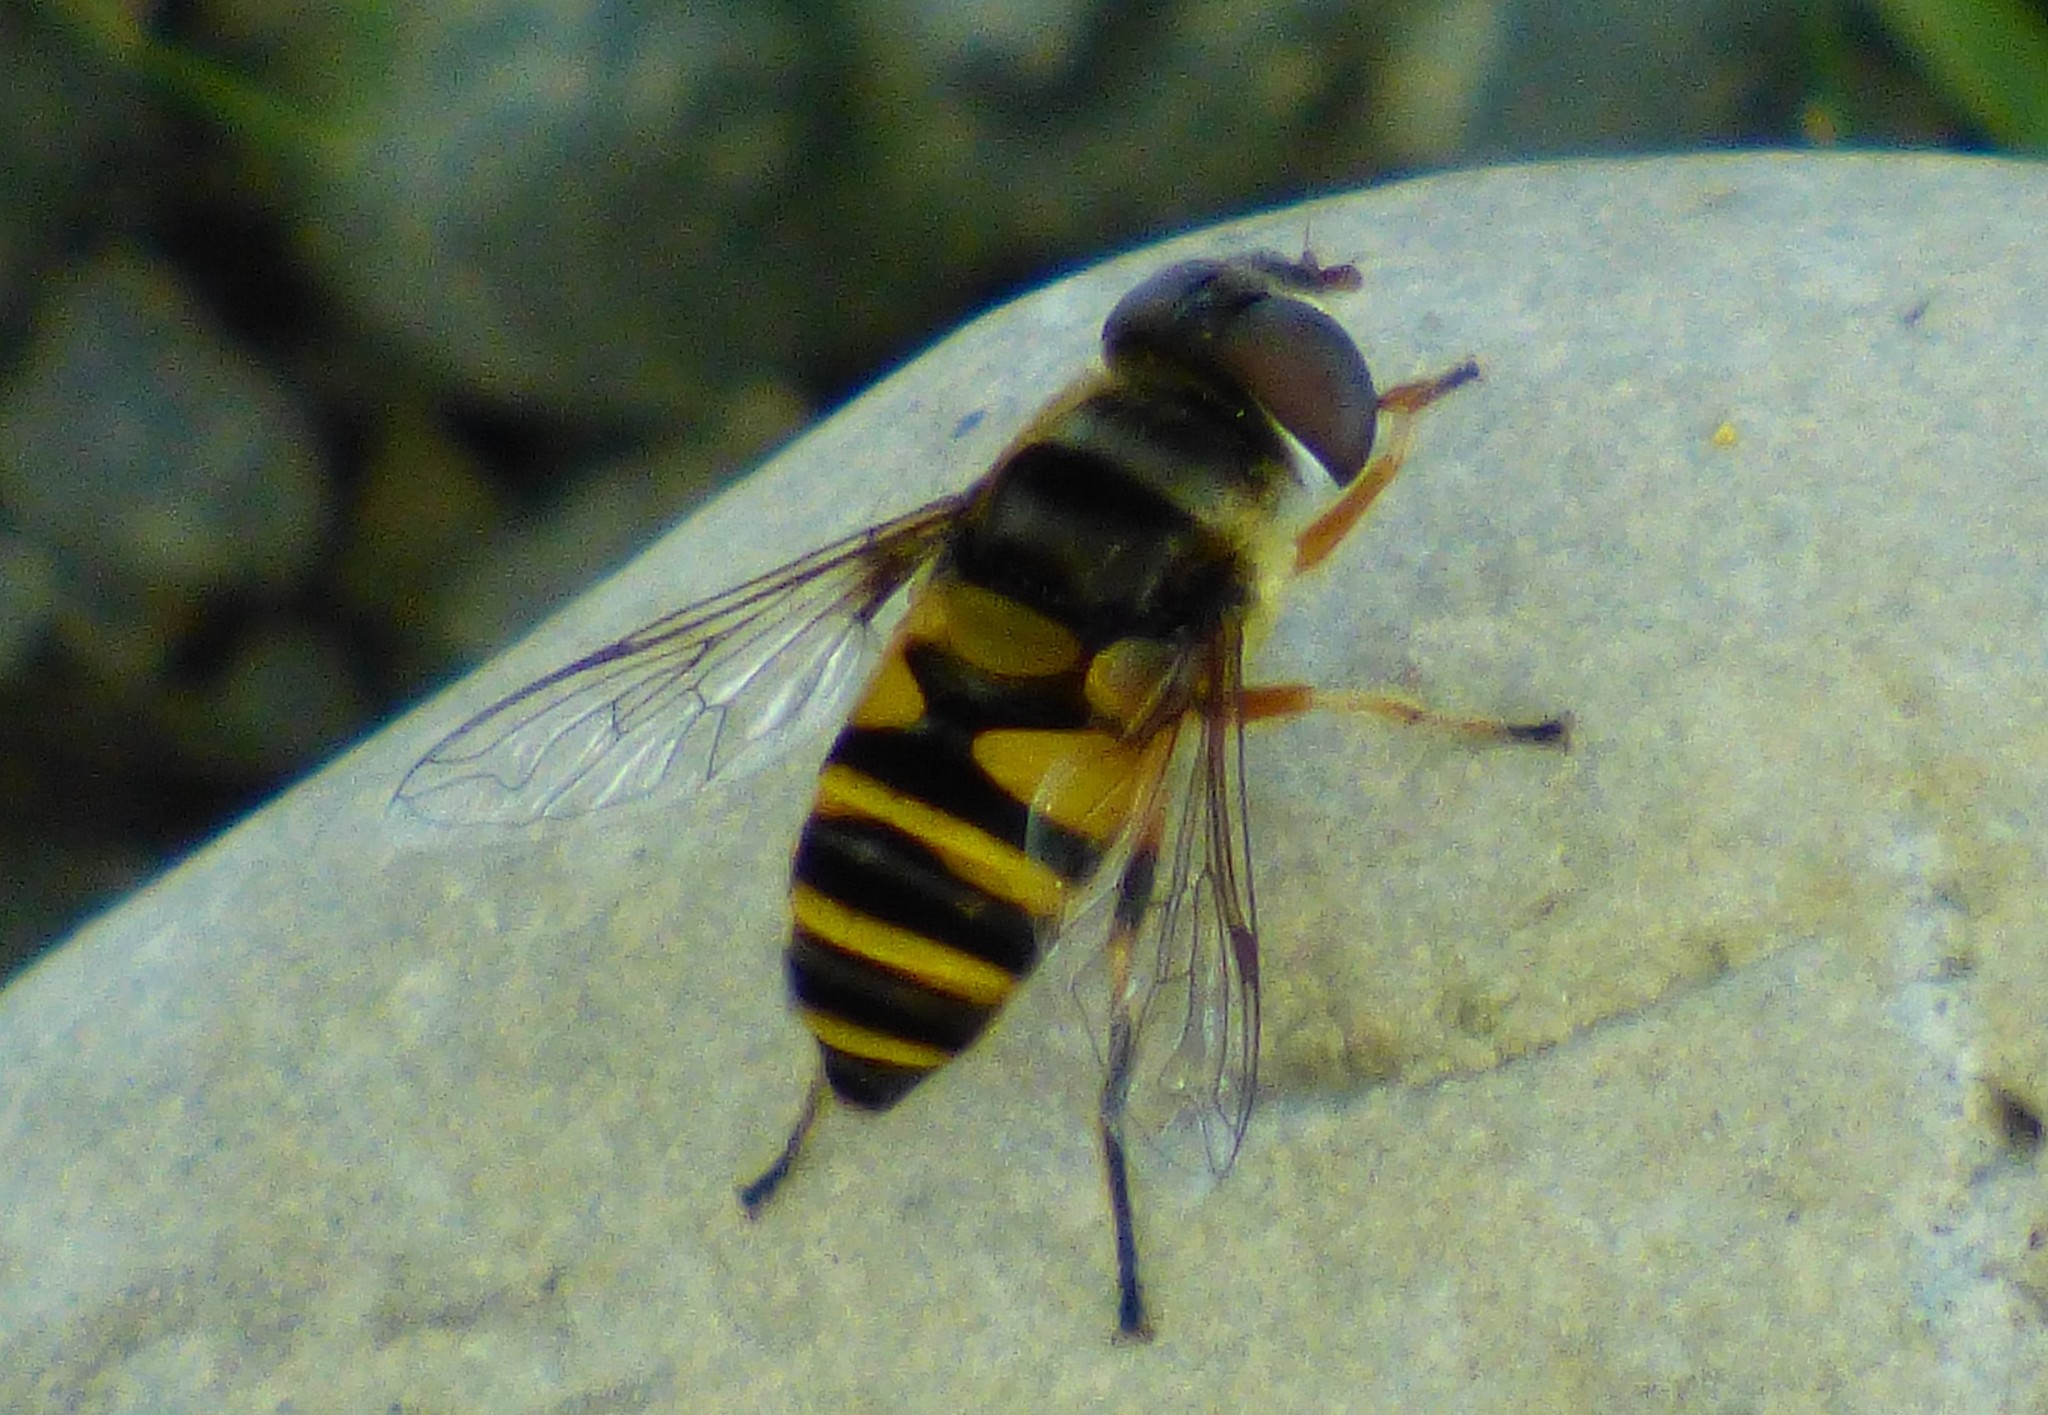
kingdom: Animalia
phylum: Arthropoda
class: Insecta
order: Diptera
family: Syrphidae
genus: Eristalis
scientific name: Eristalis transversa
